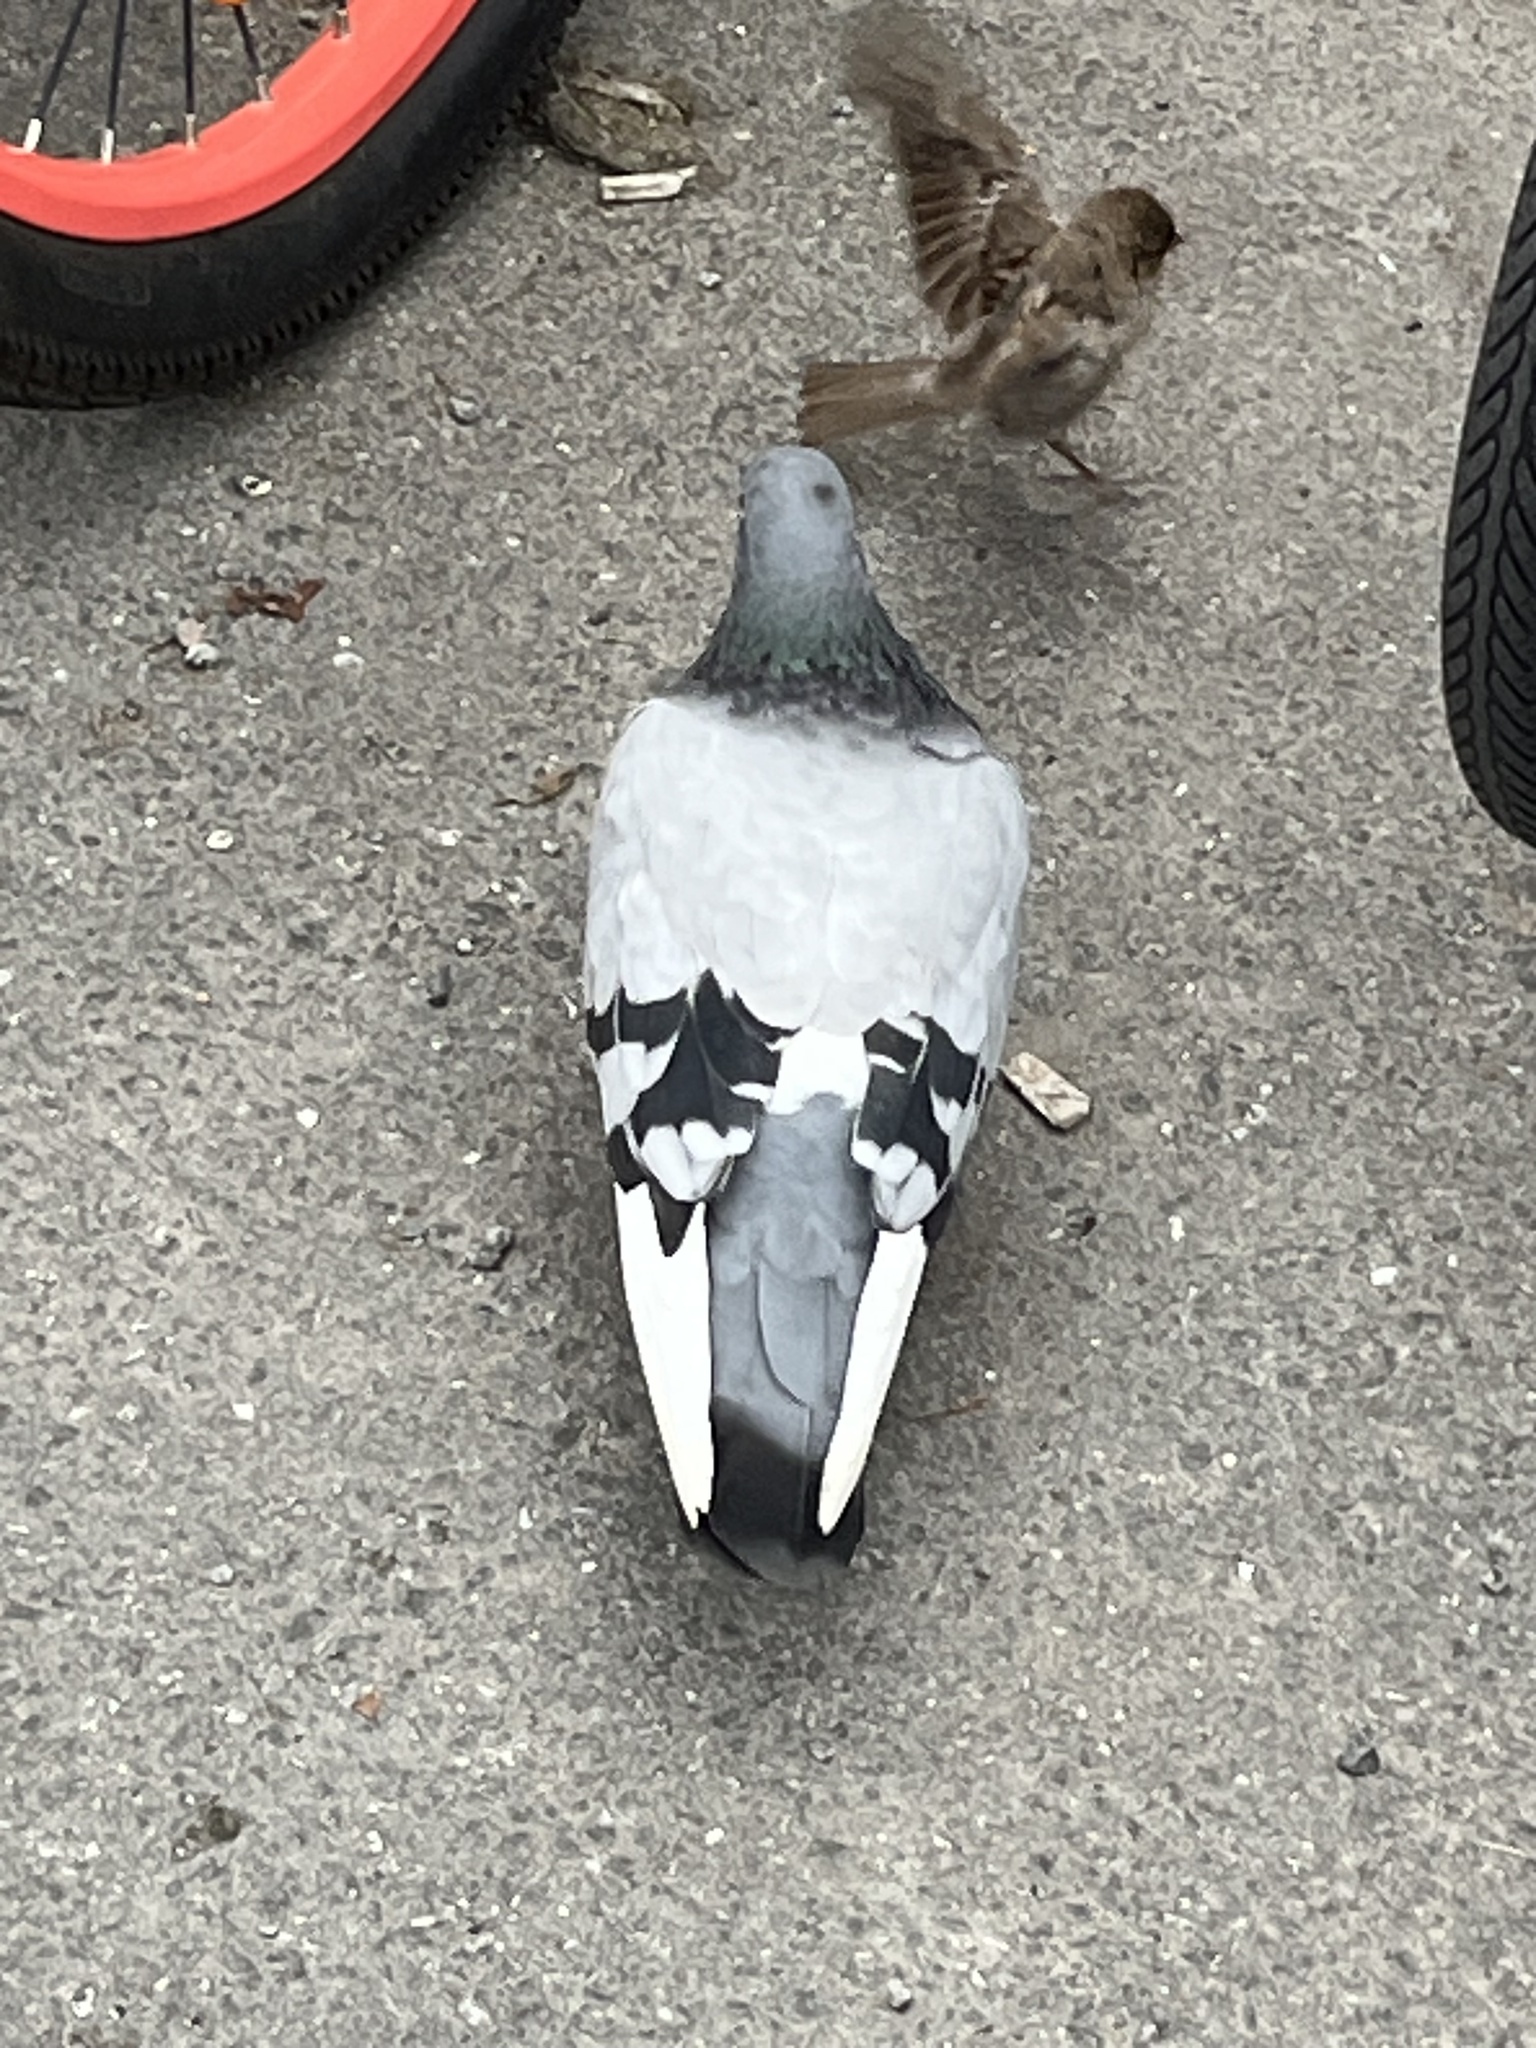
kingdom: Animalia
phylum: Chordata
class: Aves
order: Columbiformes
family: Columbidae
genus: Columba
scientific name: Columba livia
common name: Rock pigeon
